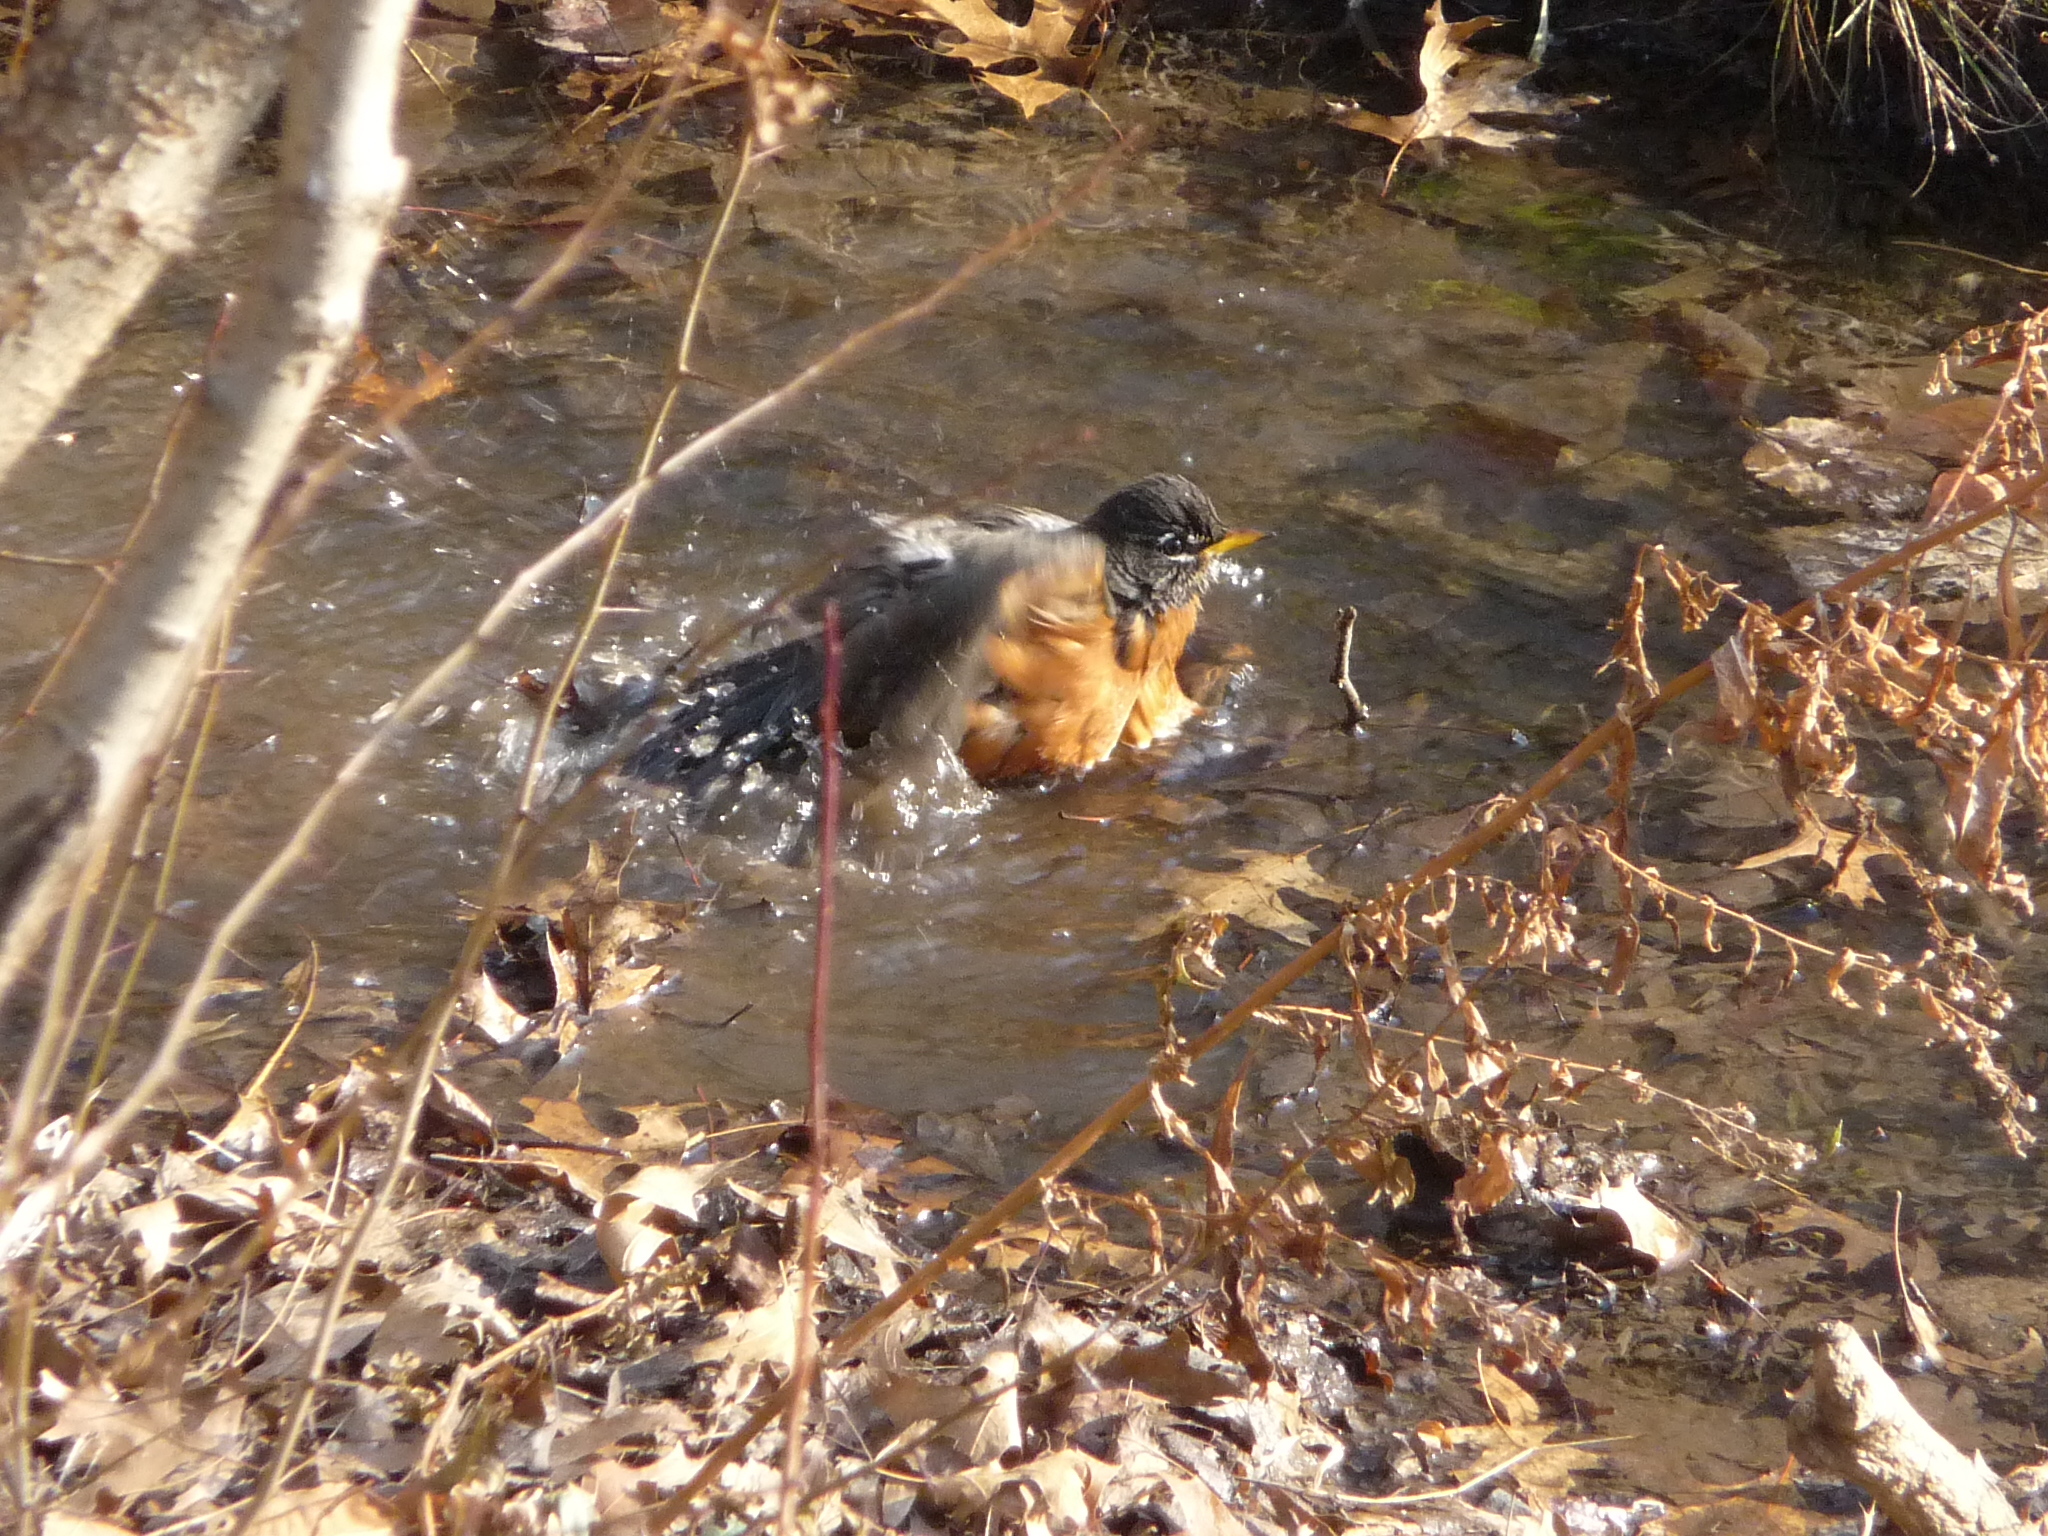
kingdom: Animalia
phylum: Chordata
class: Aves
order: Passeriformes
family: Turdidae
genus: Turdus
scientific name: Turdus migratorius
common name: American robin
